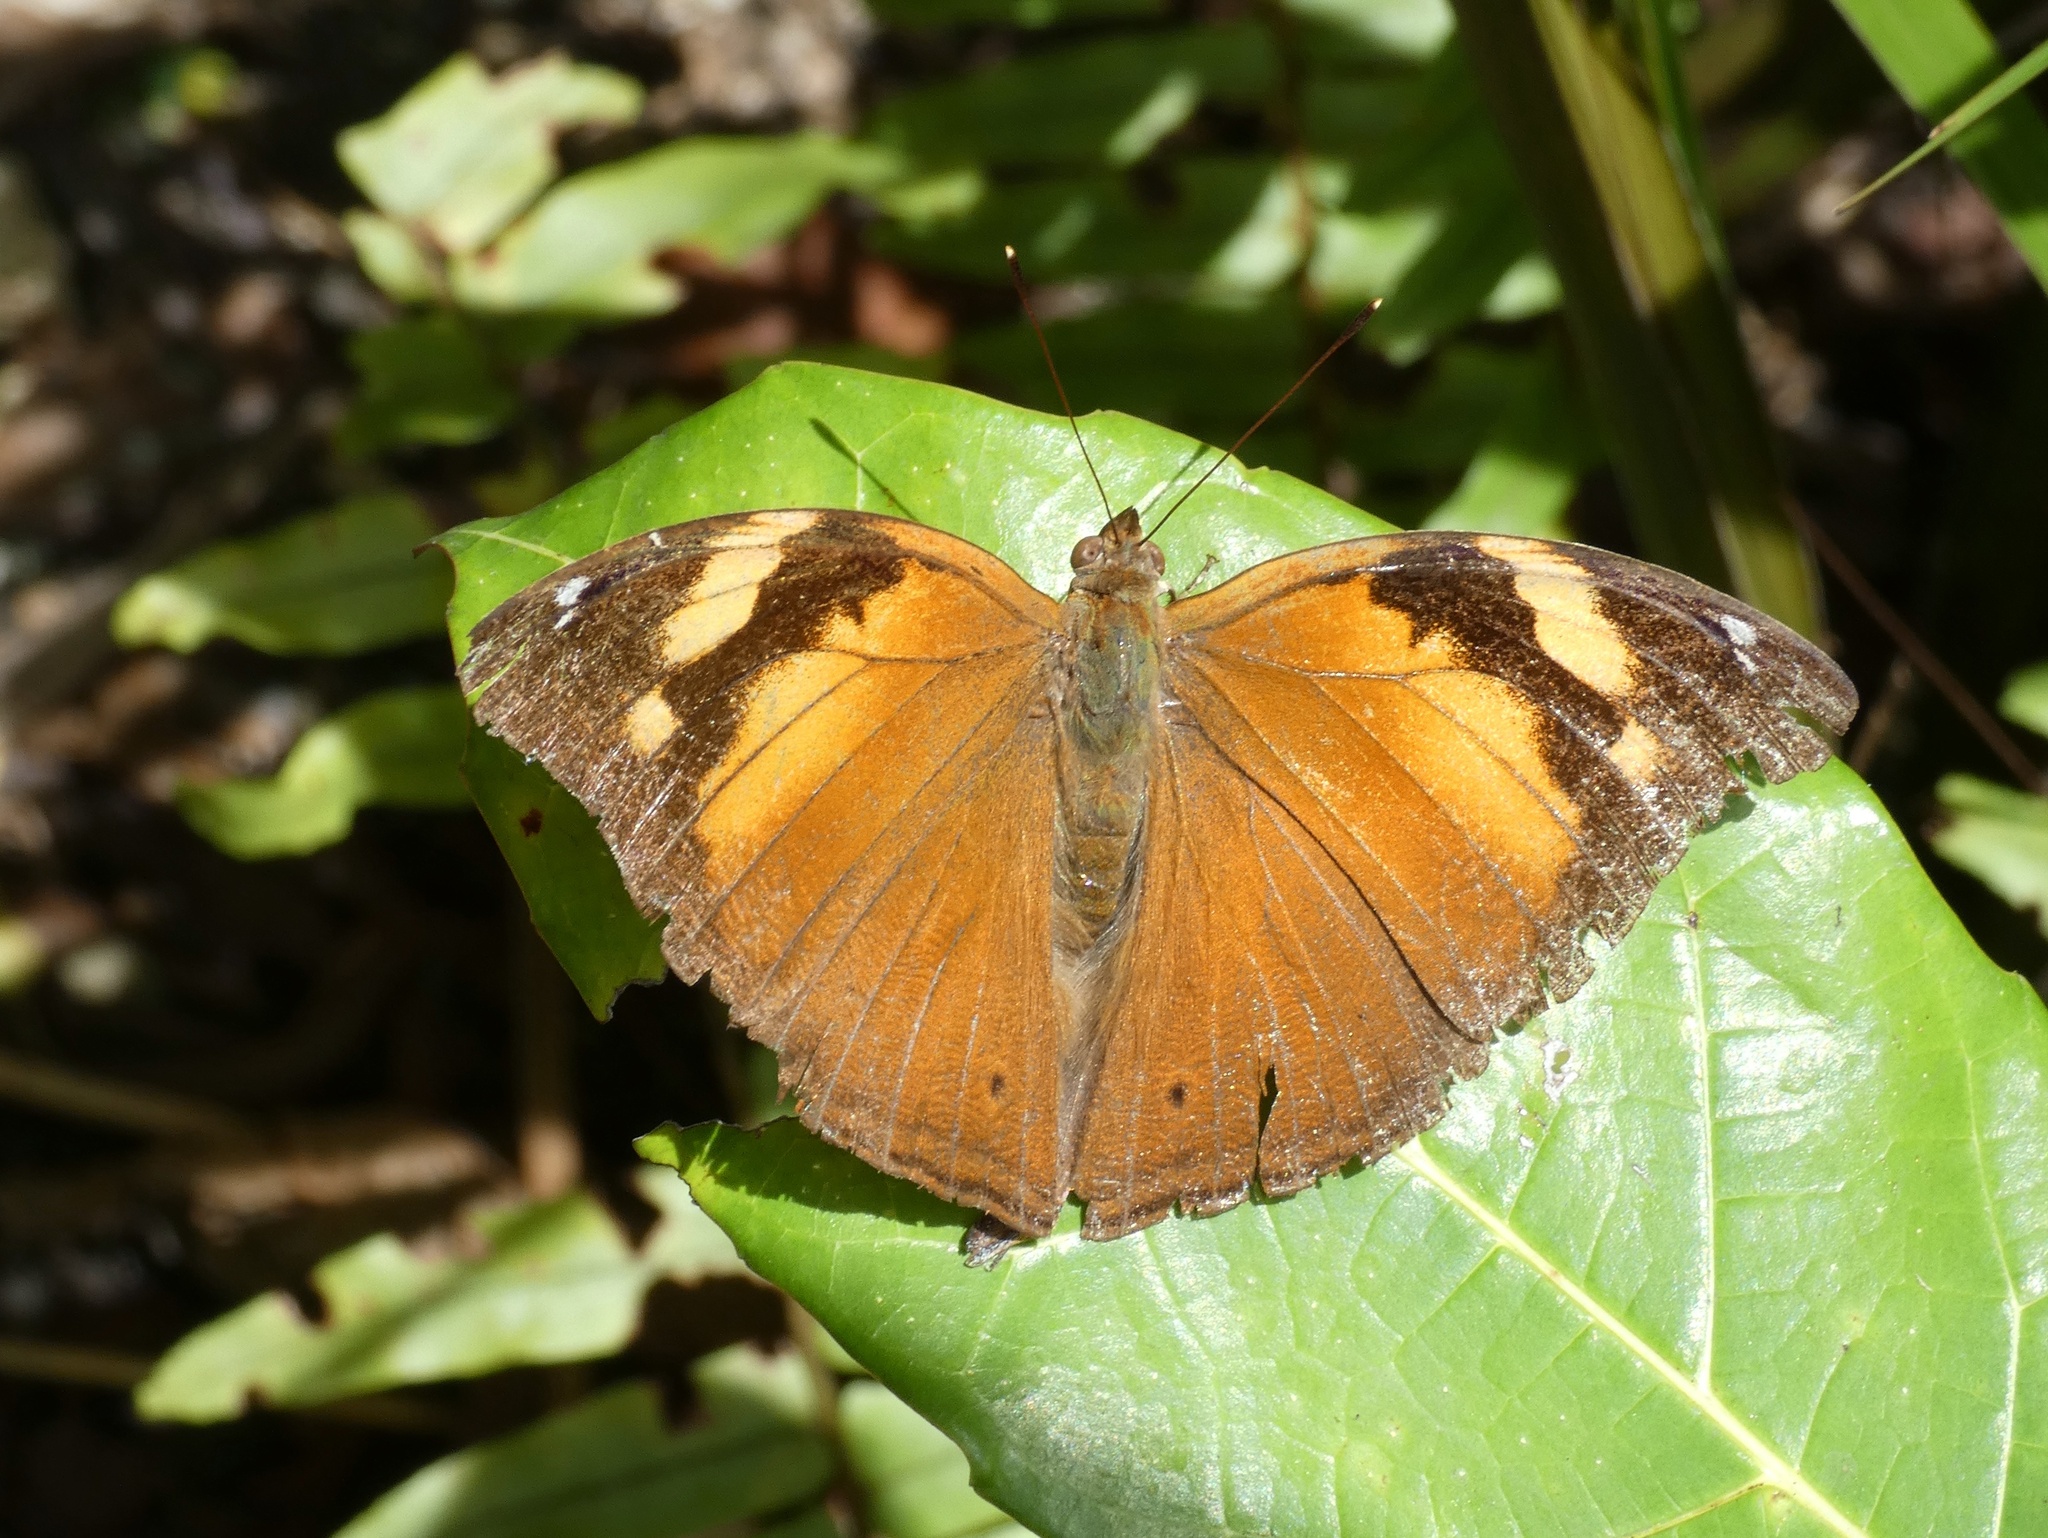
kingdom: Animalia
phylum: Arthropoda
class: Insecta
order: Lepidoptera
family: Nymphalidae
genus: Doleschallia
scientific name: Doleschallia bisaltide
